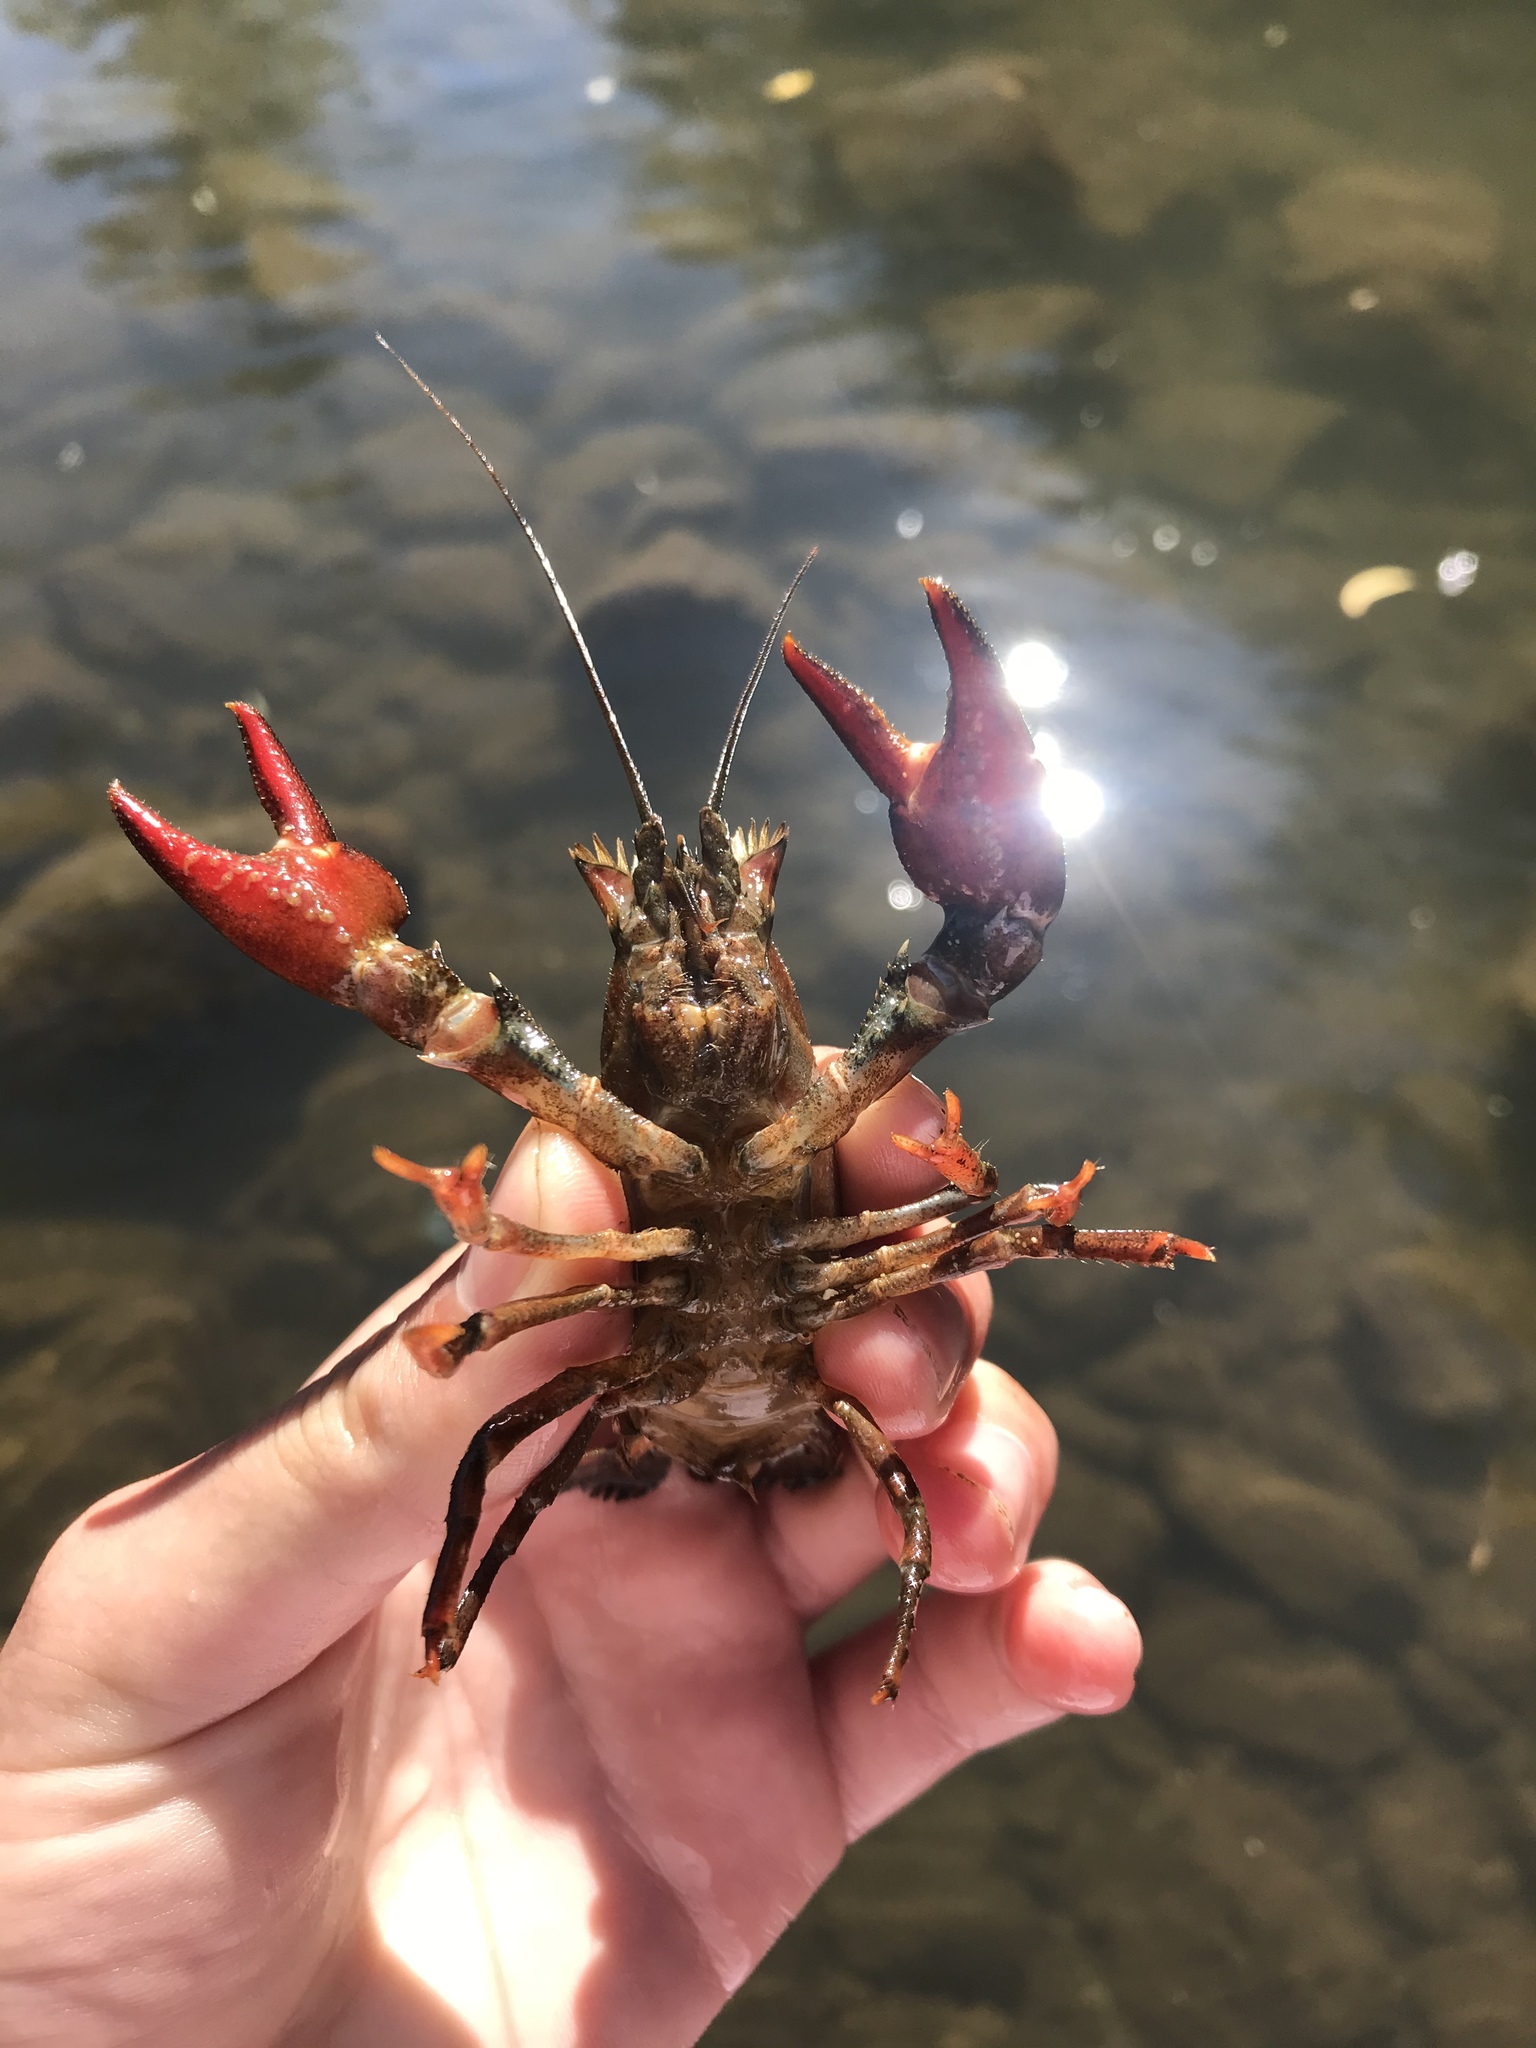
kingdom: Animalia
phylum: Arthropoda
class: Malacostraca
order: Decapoda
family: Astacidae
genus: Pacifastacus
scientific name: Pacifastacus leniusculus
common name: Signal crayfish
